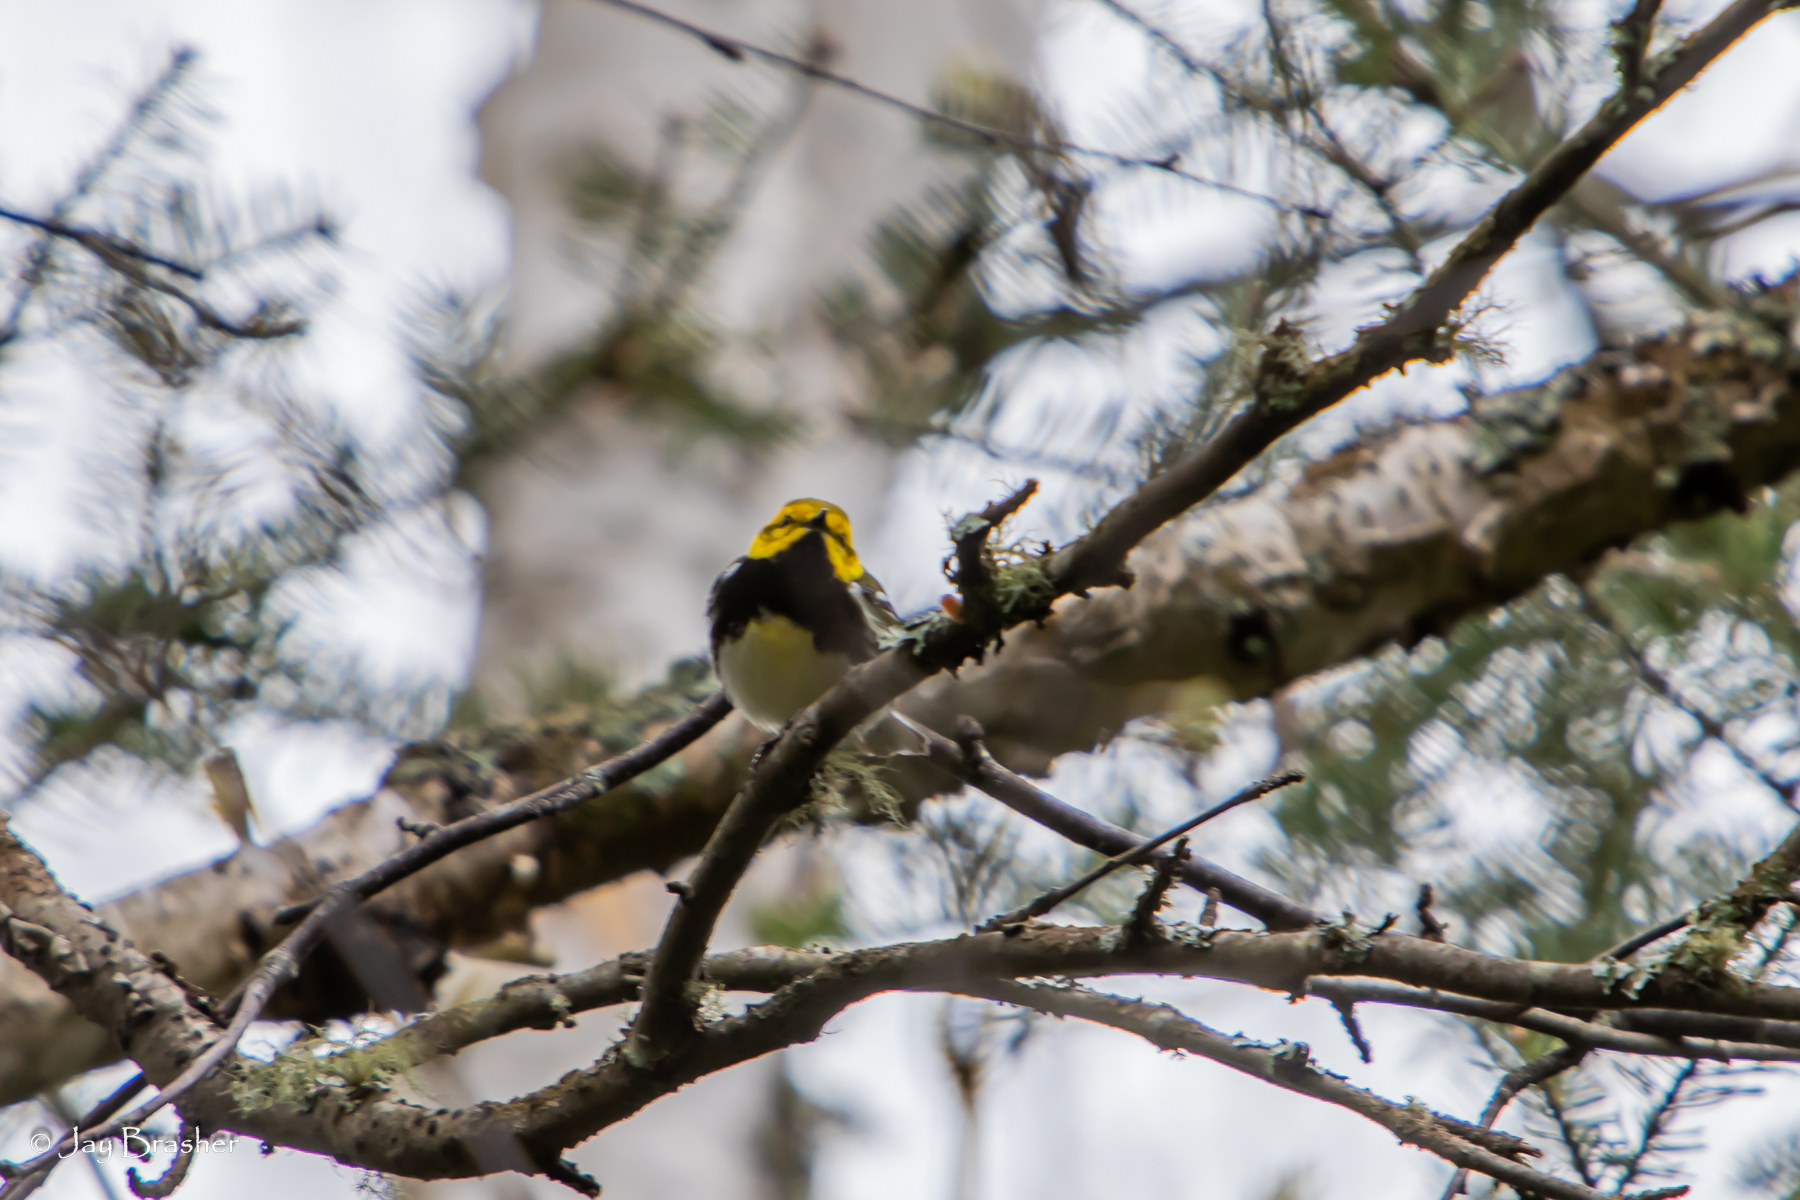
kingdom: Animalia
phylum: Chordata
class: Aves
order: Passeriformes
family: Parulidae
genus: Setophaga
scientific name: Setophaga virens
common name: Black-throated green warbler
